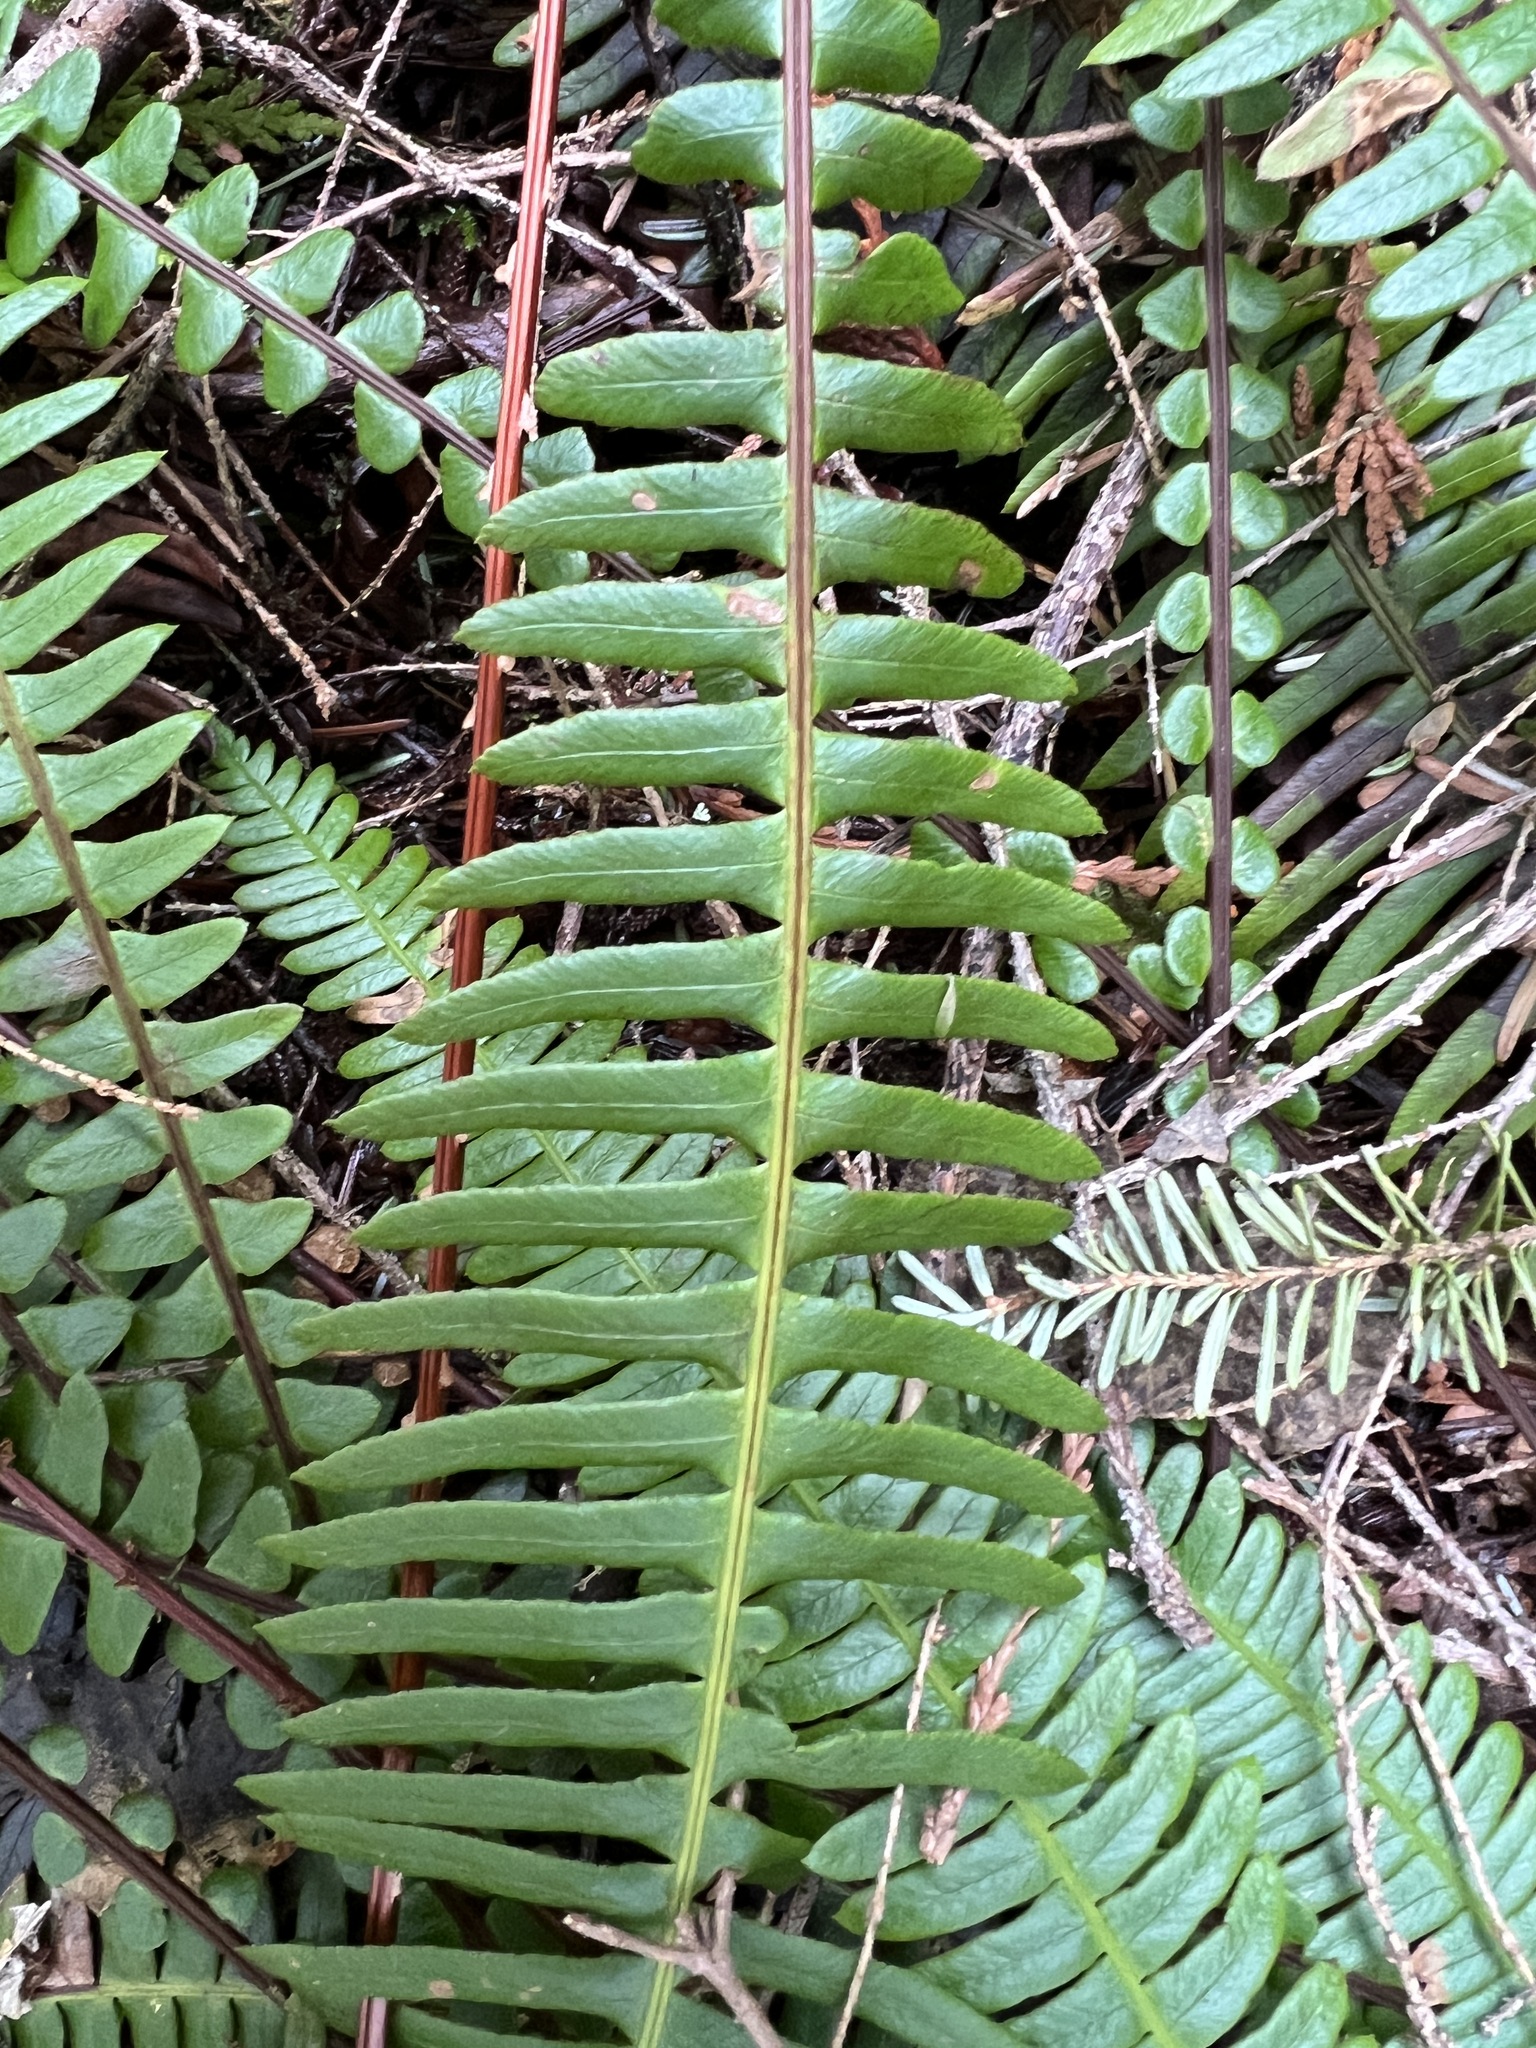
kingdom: Plantae
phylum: Tracheophyta
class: Polypodiopsida
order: Polypodiales
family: Blechnaceae
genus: Struthiopteris
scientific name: Struthiopteris spicant
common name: Deer fern
